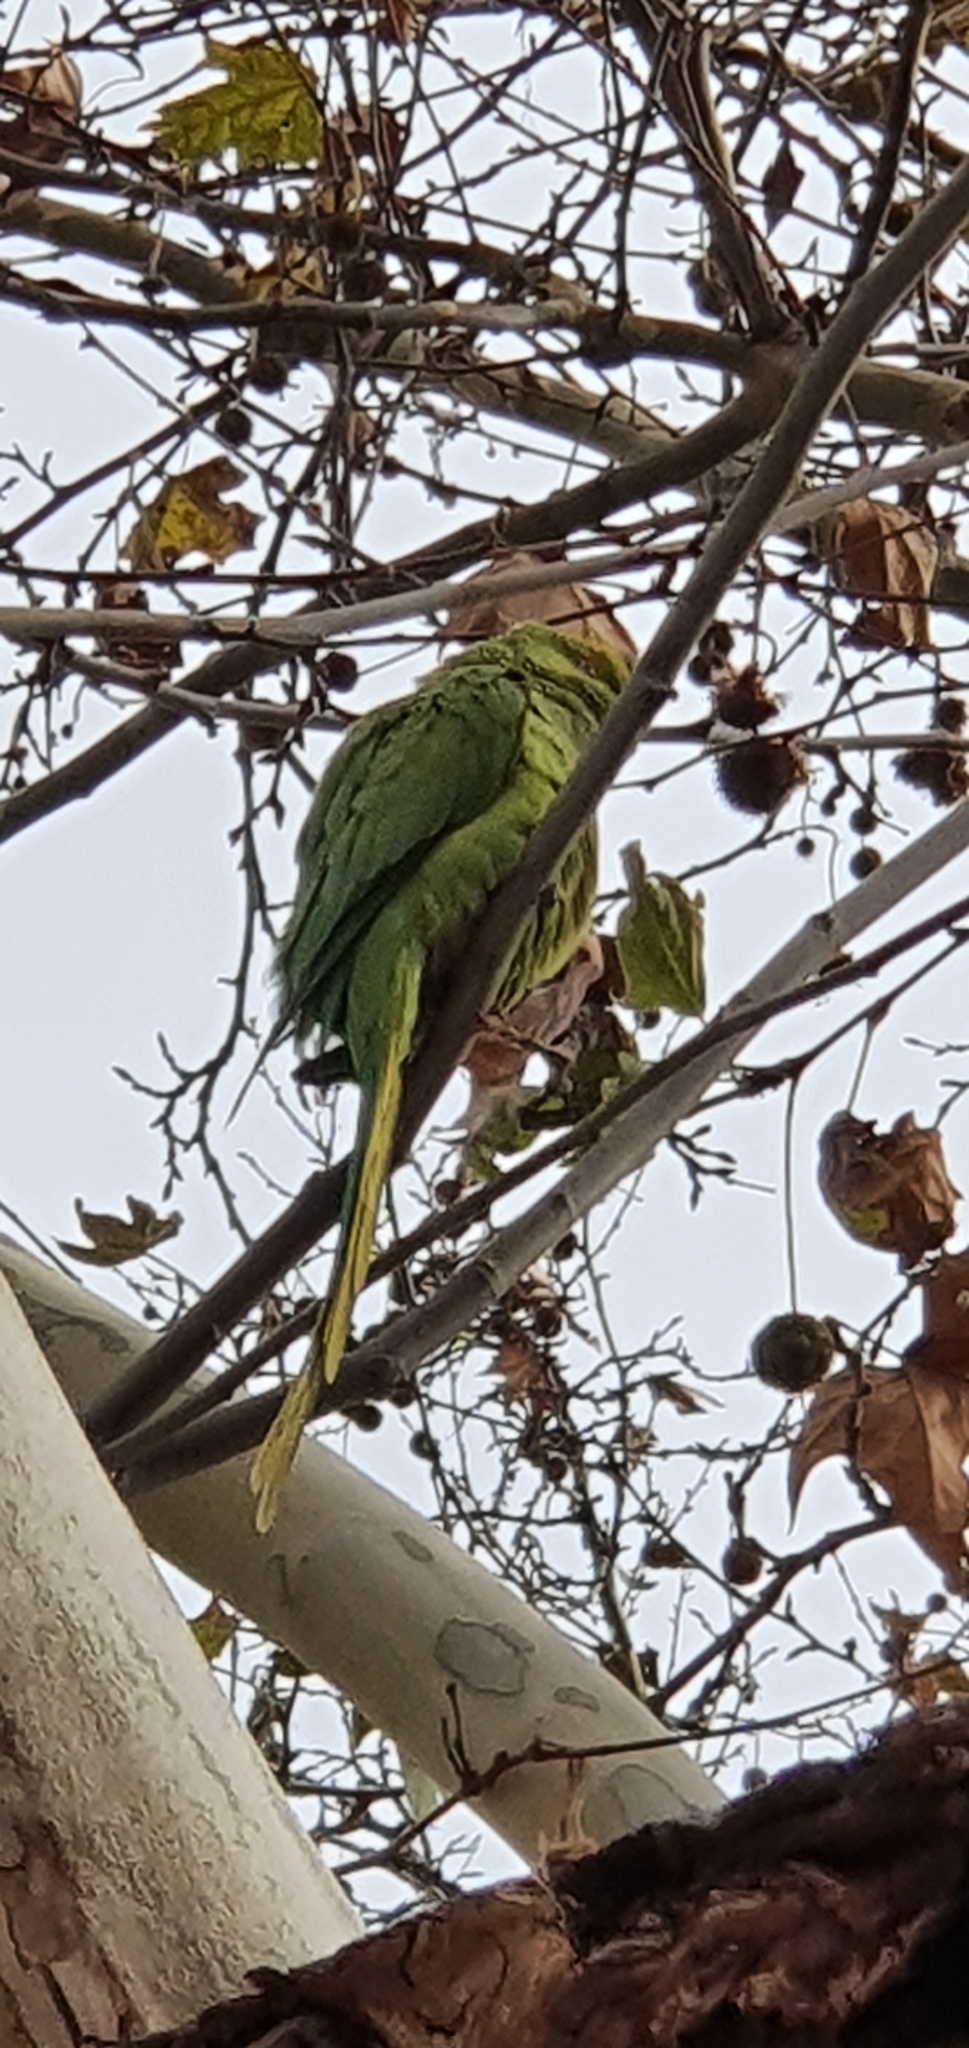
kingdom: Animalia
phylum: Chordata
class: Aves
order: Psittaciformes
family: Psittacidae
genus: Psittacula
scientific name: Psittacula krameri
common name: Rose-ringed parakeet
